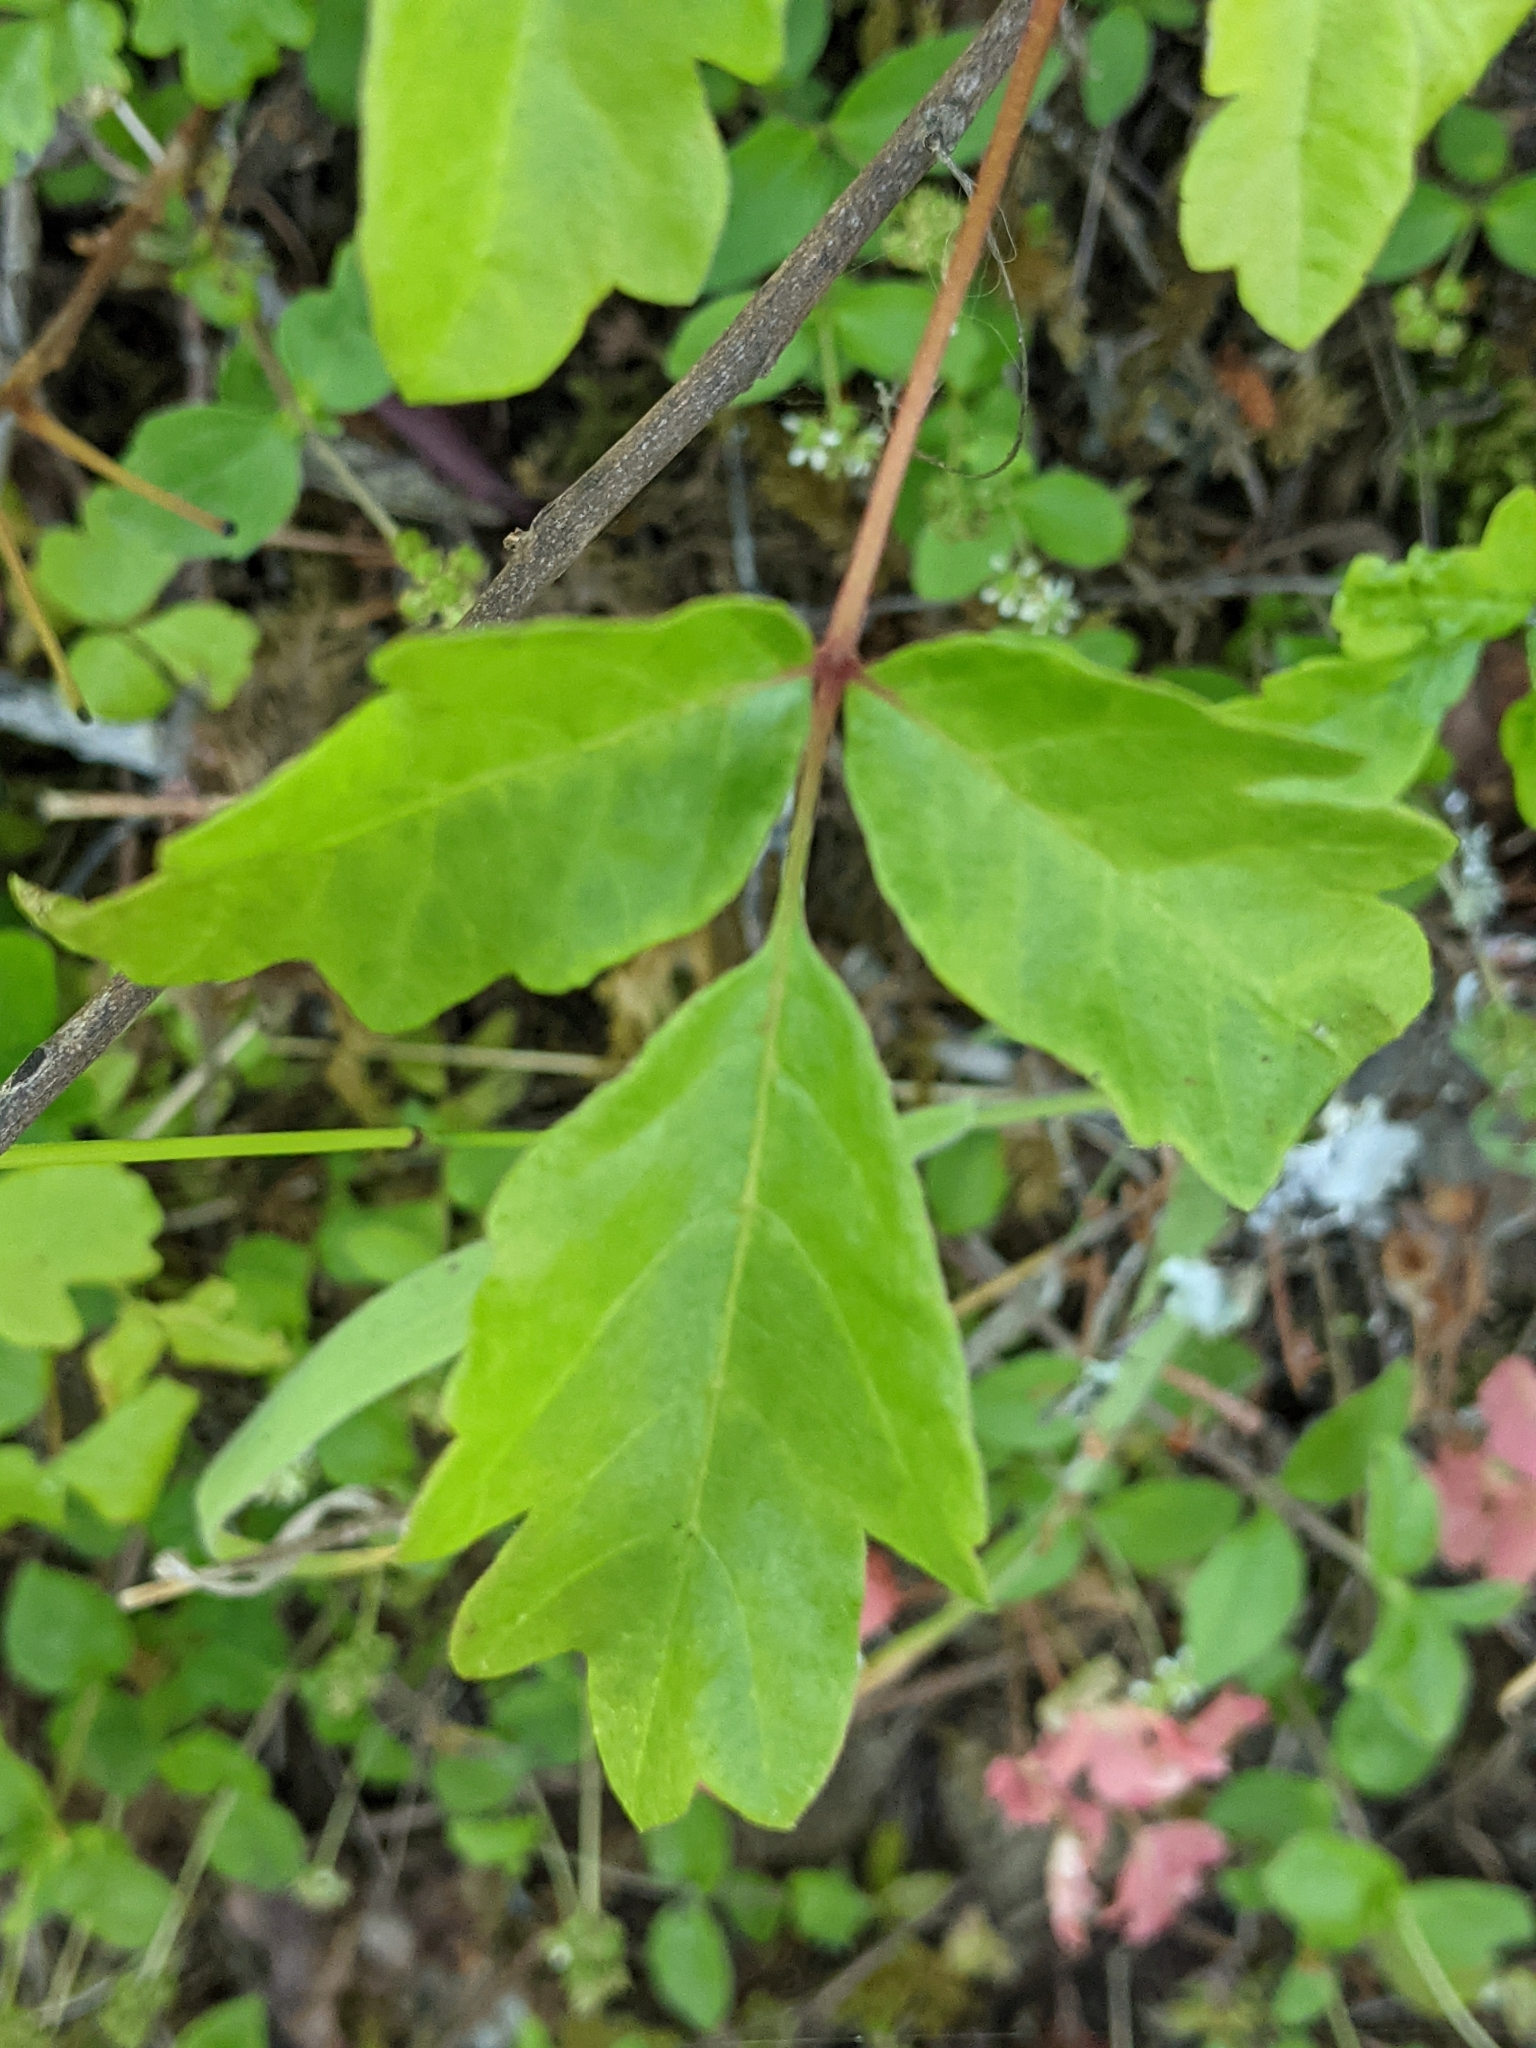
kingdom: Plantae
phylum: Tracheophyta
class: Magnoliopsida
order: Sapindales
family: Anacardiaceae
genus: Toxicodendron
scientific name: Toxicodendron diversilobum
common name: Pacific poison-oak
